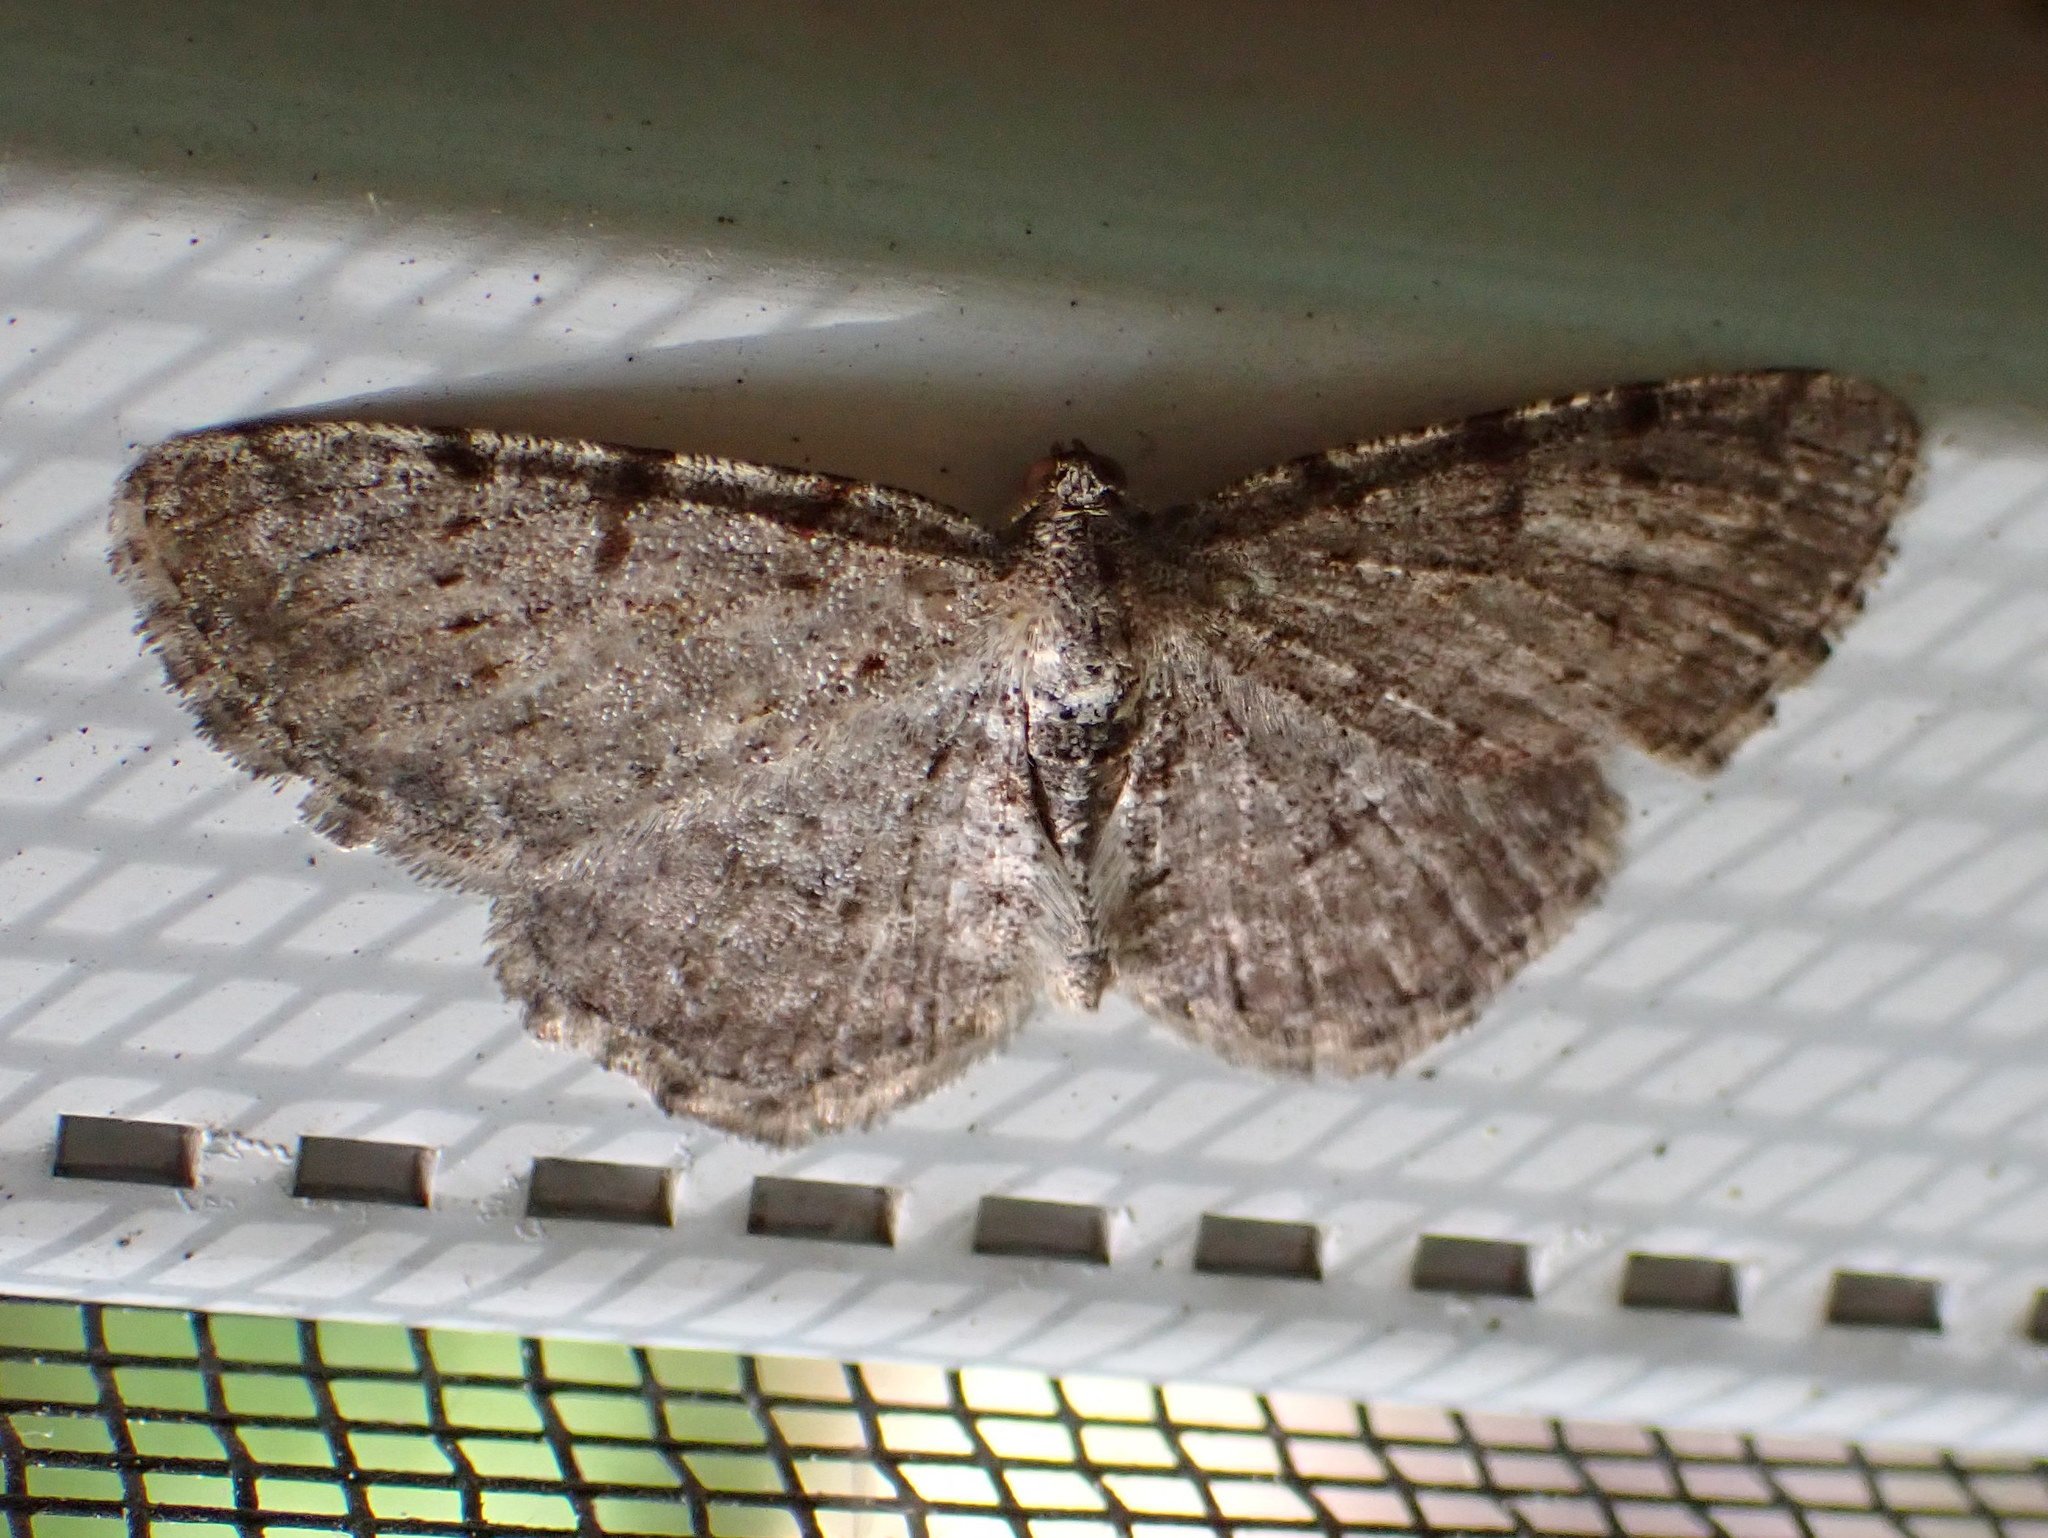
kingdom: Animalia
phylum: Arthropoda
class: Insecta
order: Lepidoptera
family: Geometridae
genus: Aethalura
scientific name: Aethalura intertexta
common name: Four-barred gray
